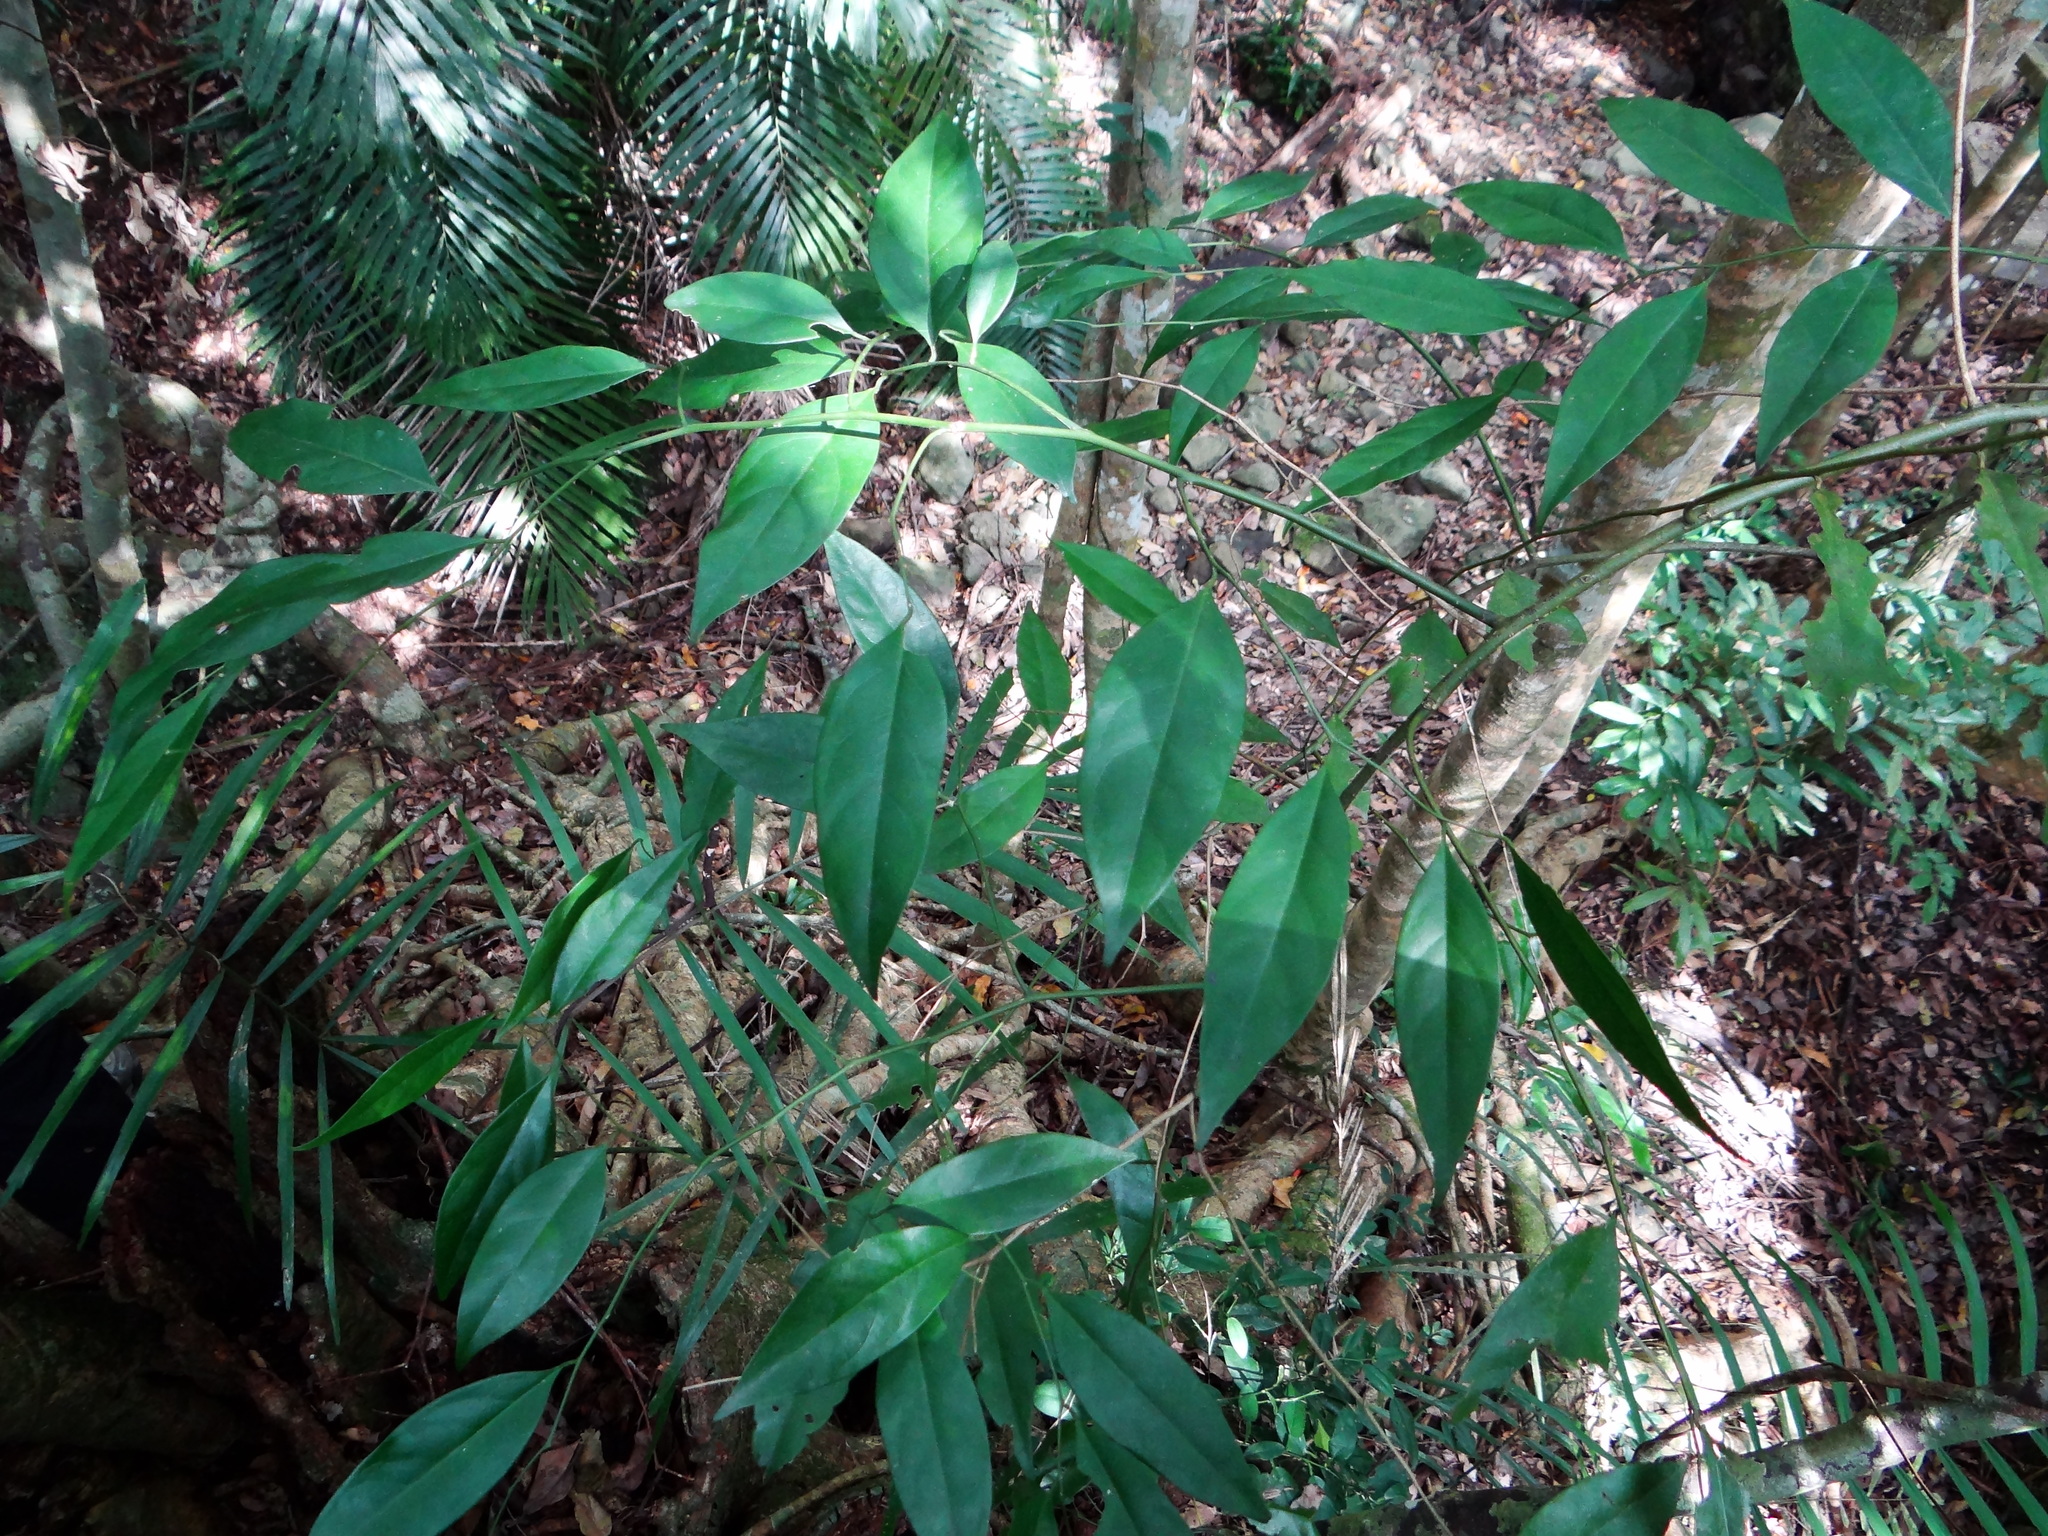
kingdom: Plantae
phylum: Tracheophyta
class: Magnoliopsida
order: Brassicales
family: Capparaceae
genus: Capparis
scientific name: Capparis sabiifolia
